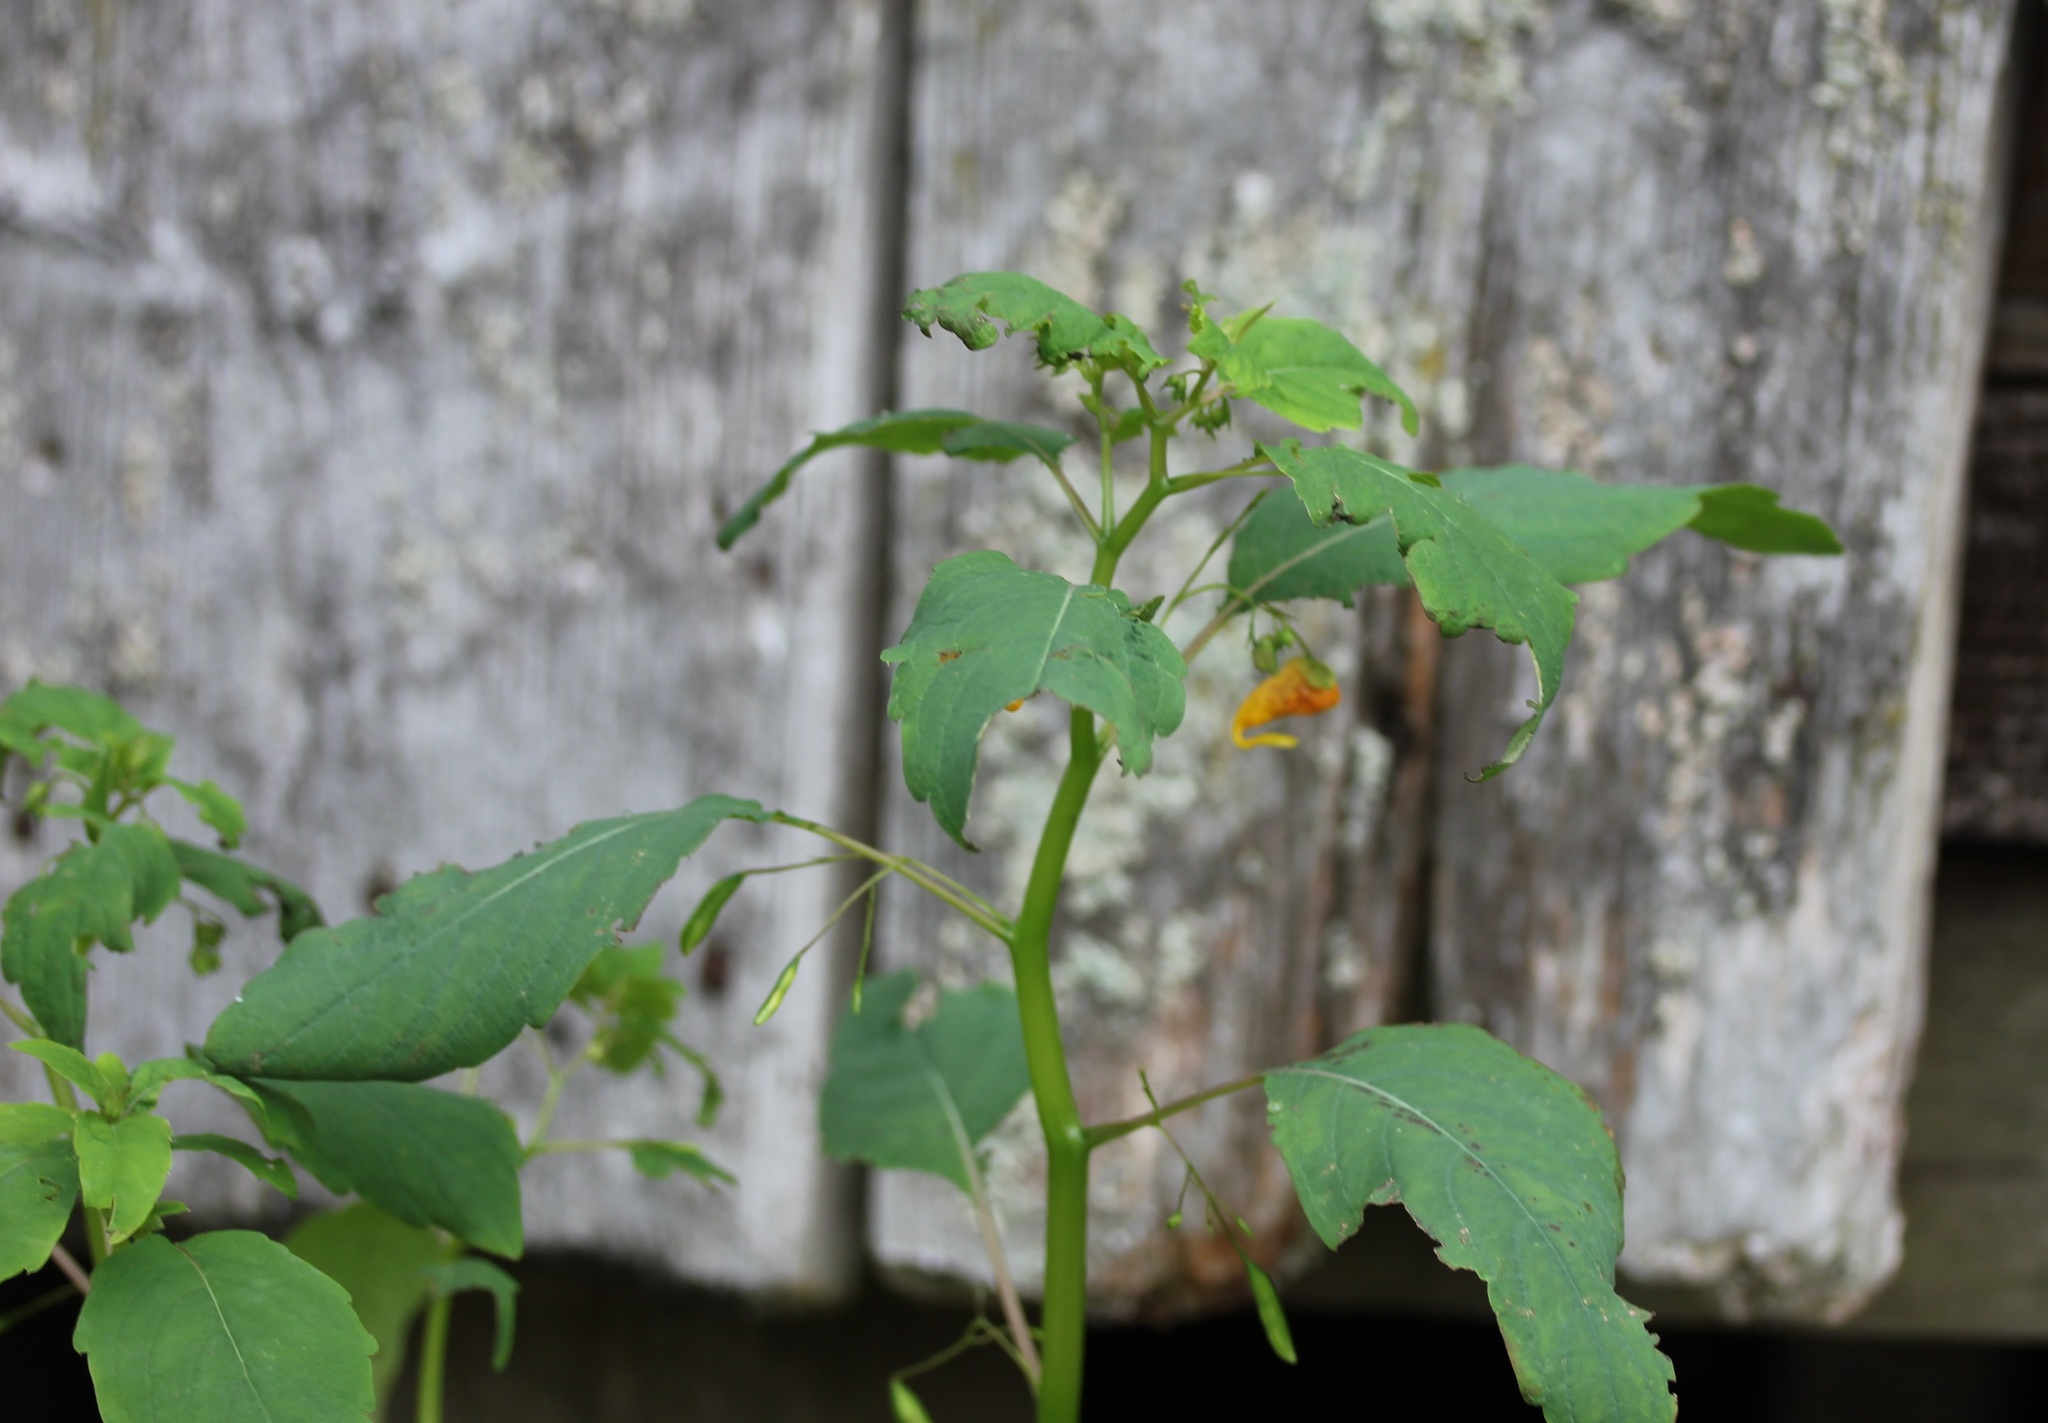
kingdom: Plantae
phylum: Tracheophyta
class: Magnoliopsida
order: Ericales
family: Balsaminaceae
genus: Impatiens
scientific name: Impatiens capensis
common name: Orange balsam
